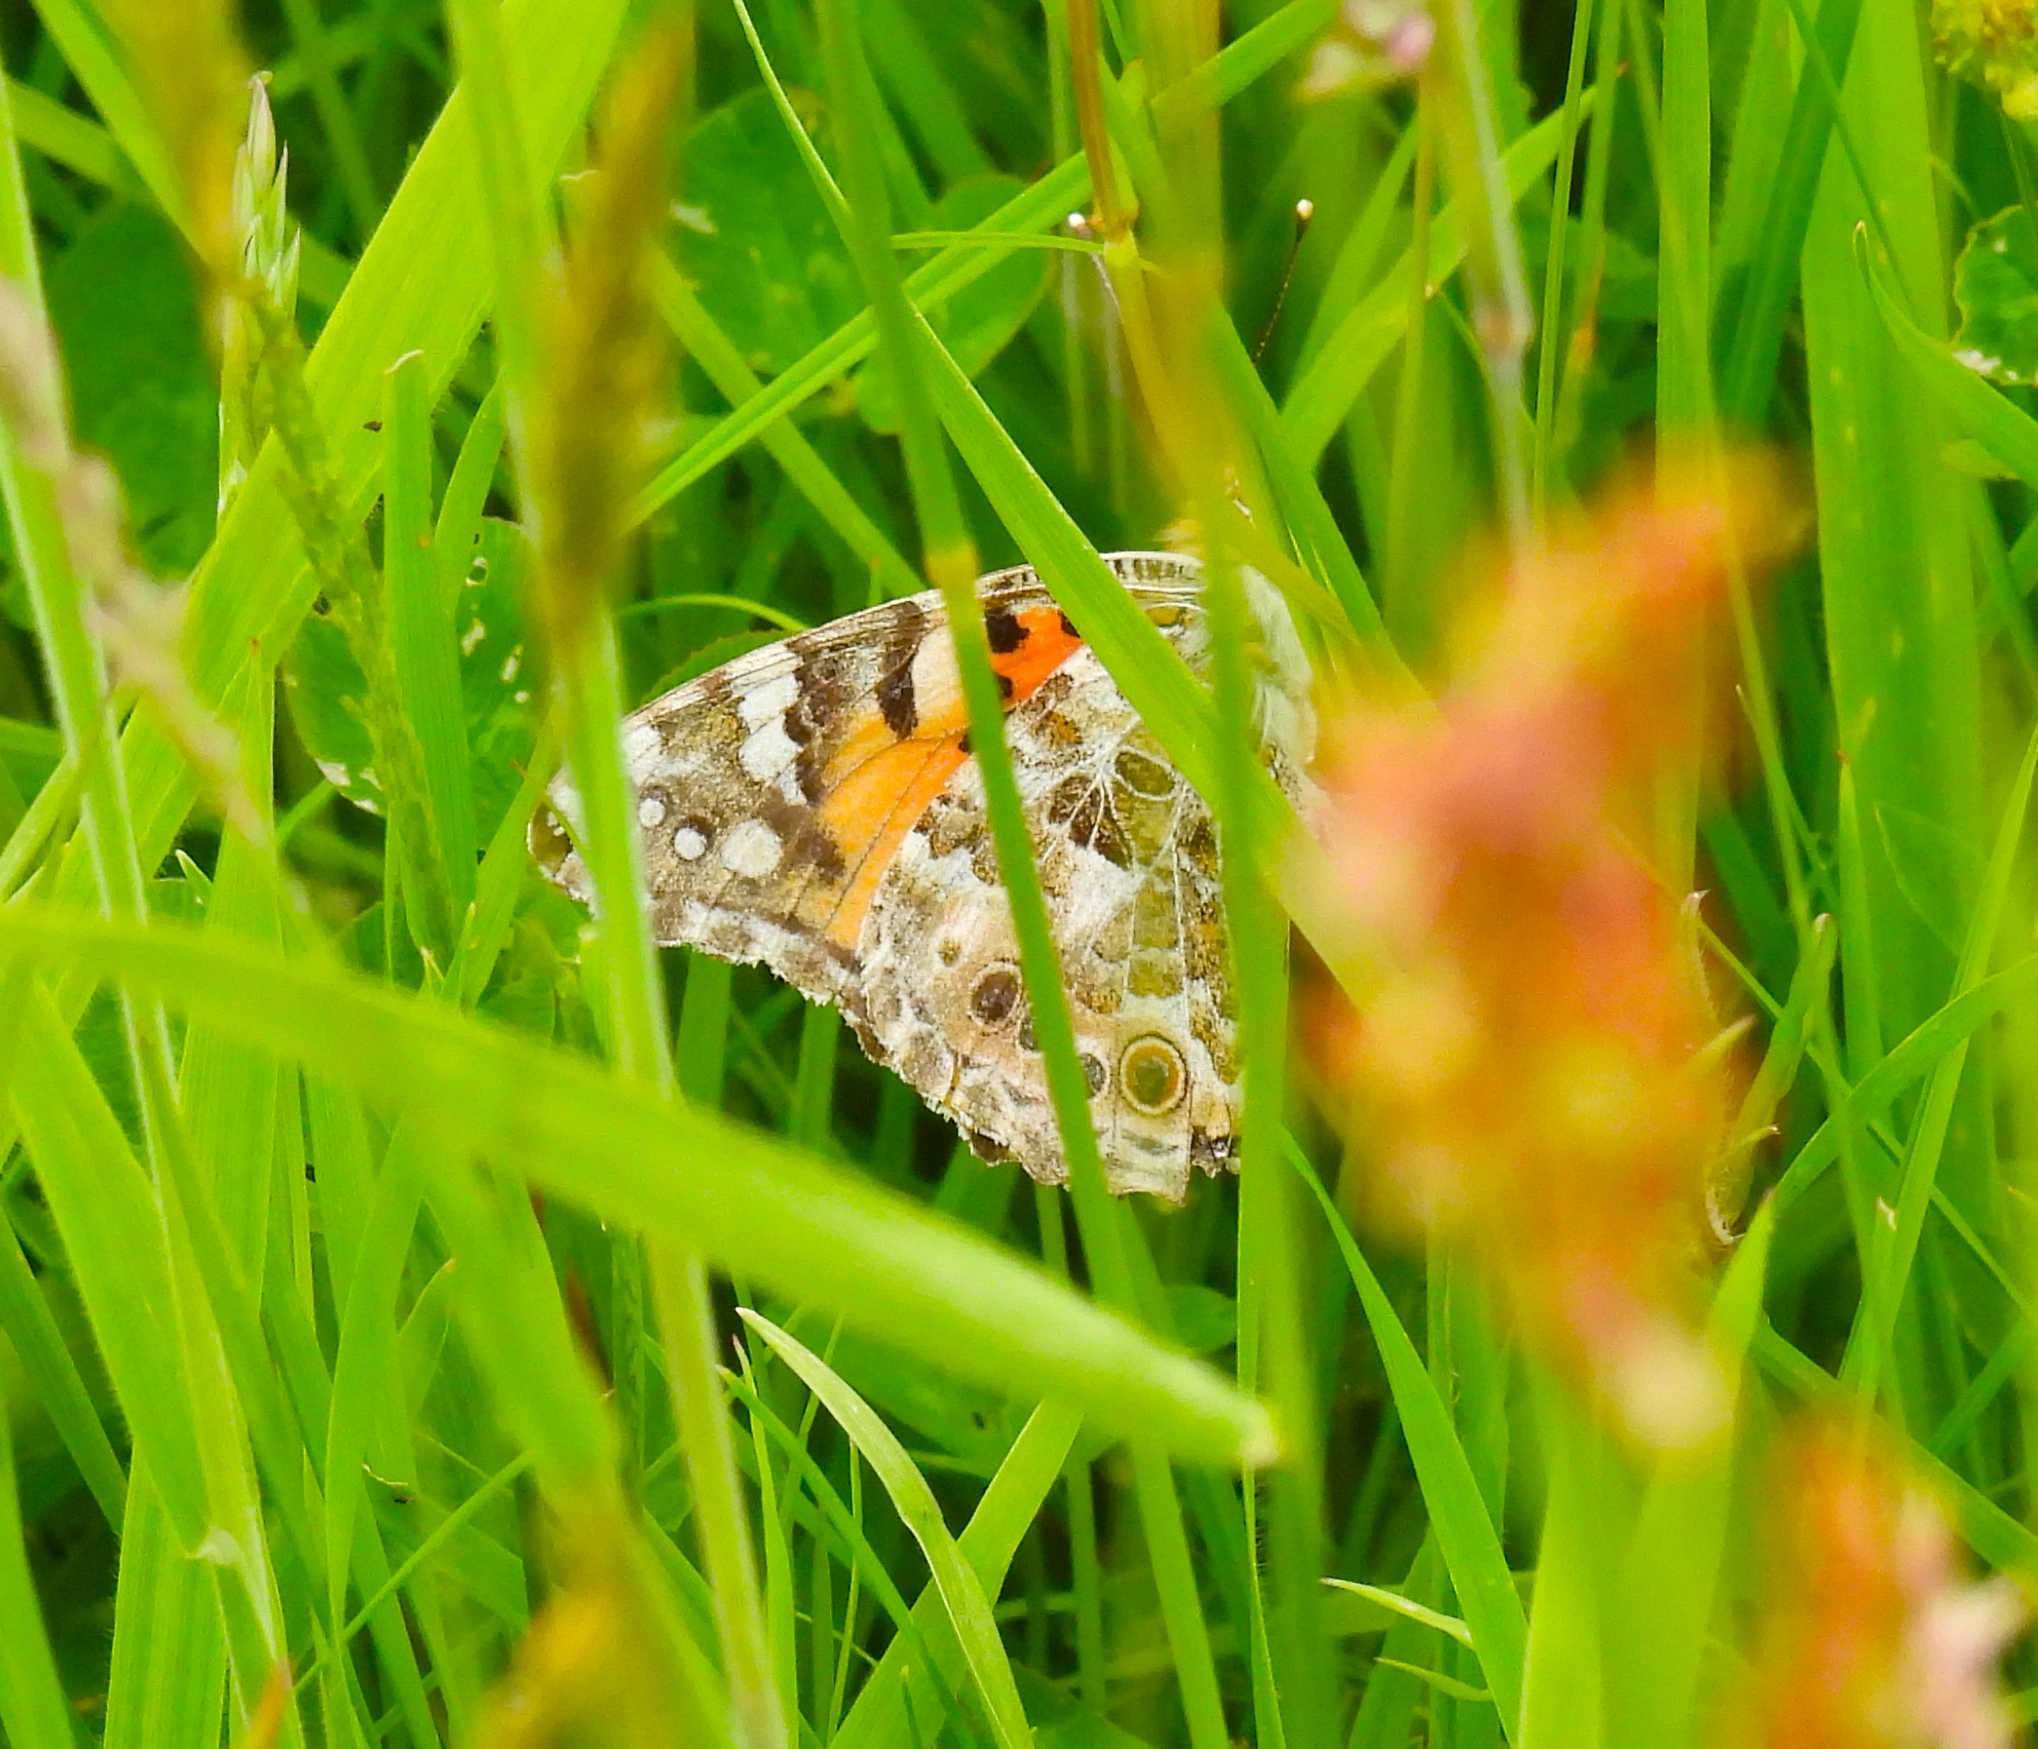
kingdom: Animalia
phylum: Arthropoda
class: Insecta
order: Lepidoptera
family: Nymphalidae
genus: Vanessa
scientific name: Vanessa cardui
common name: Painted lady
